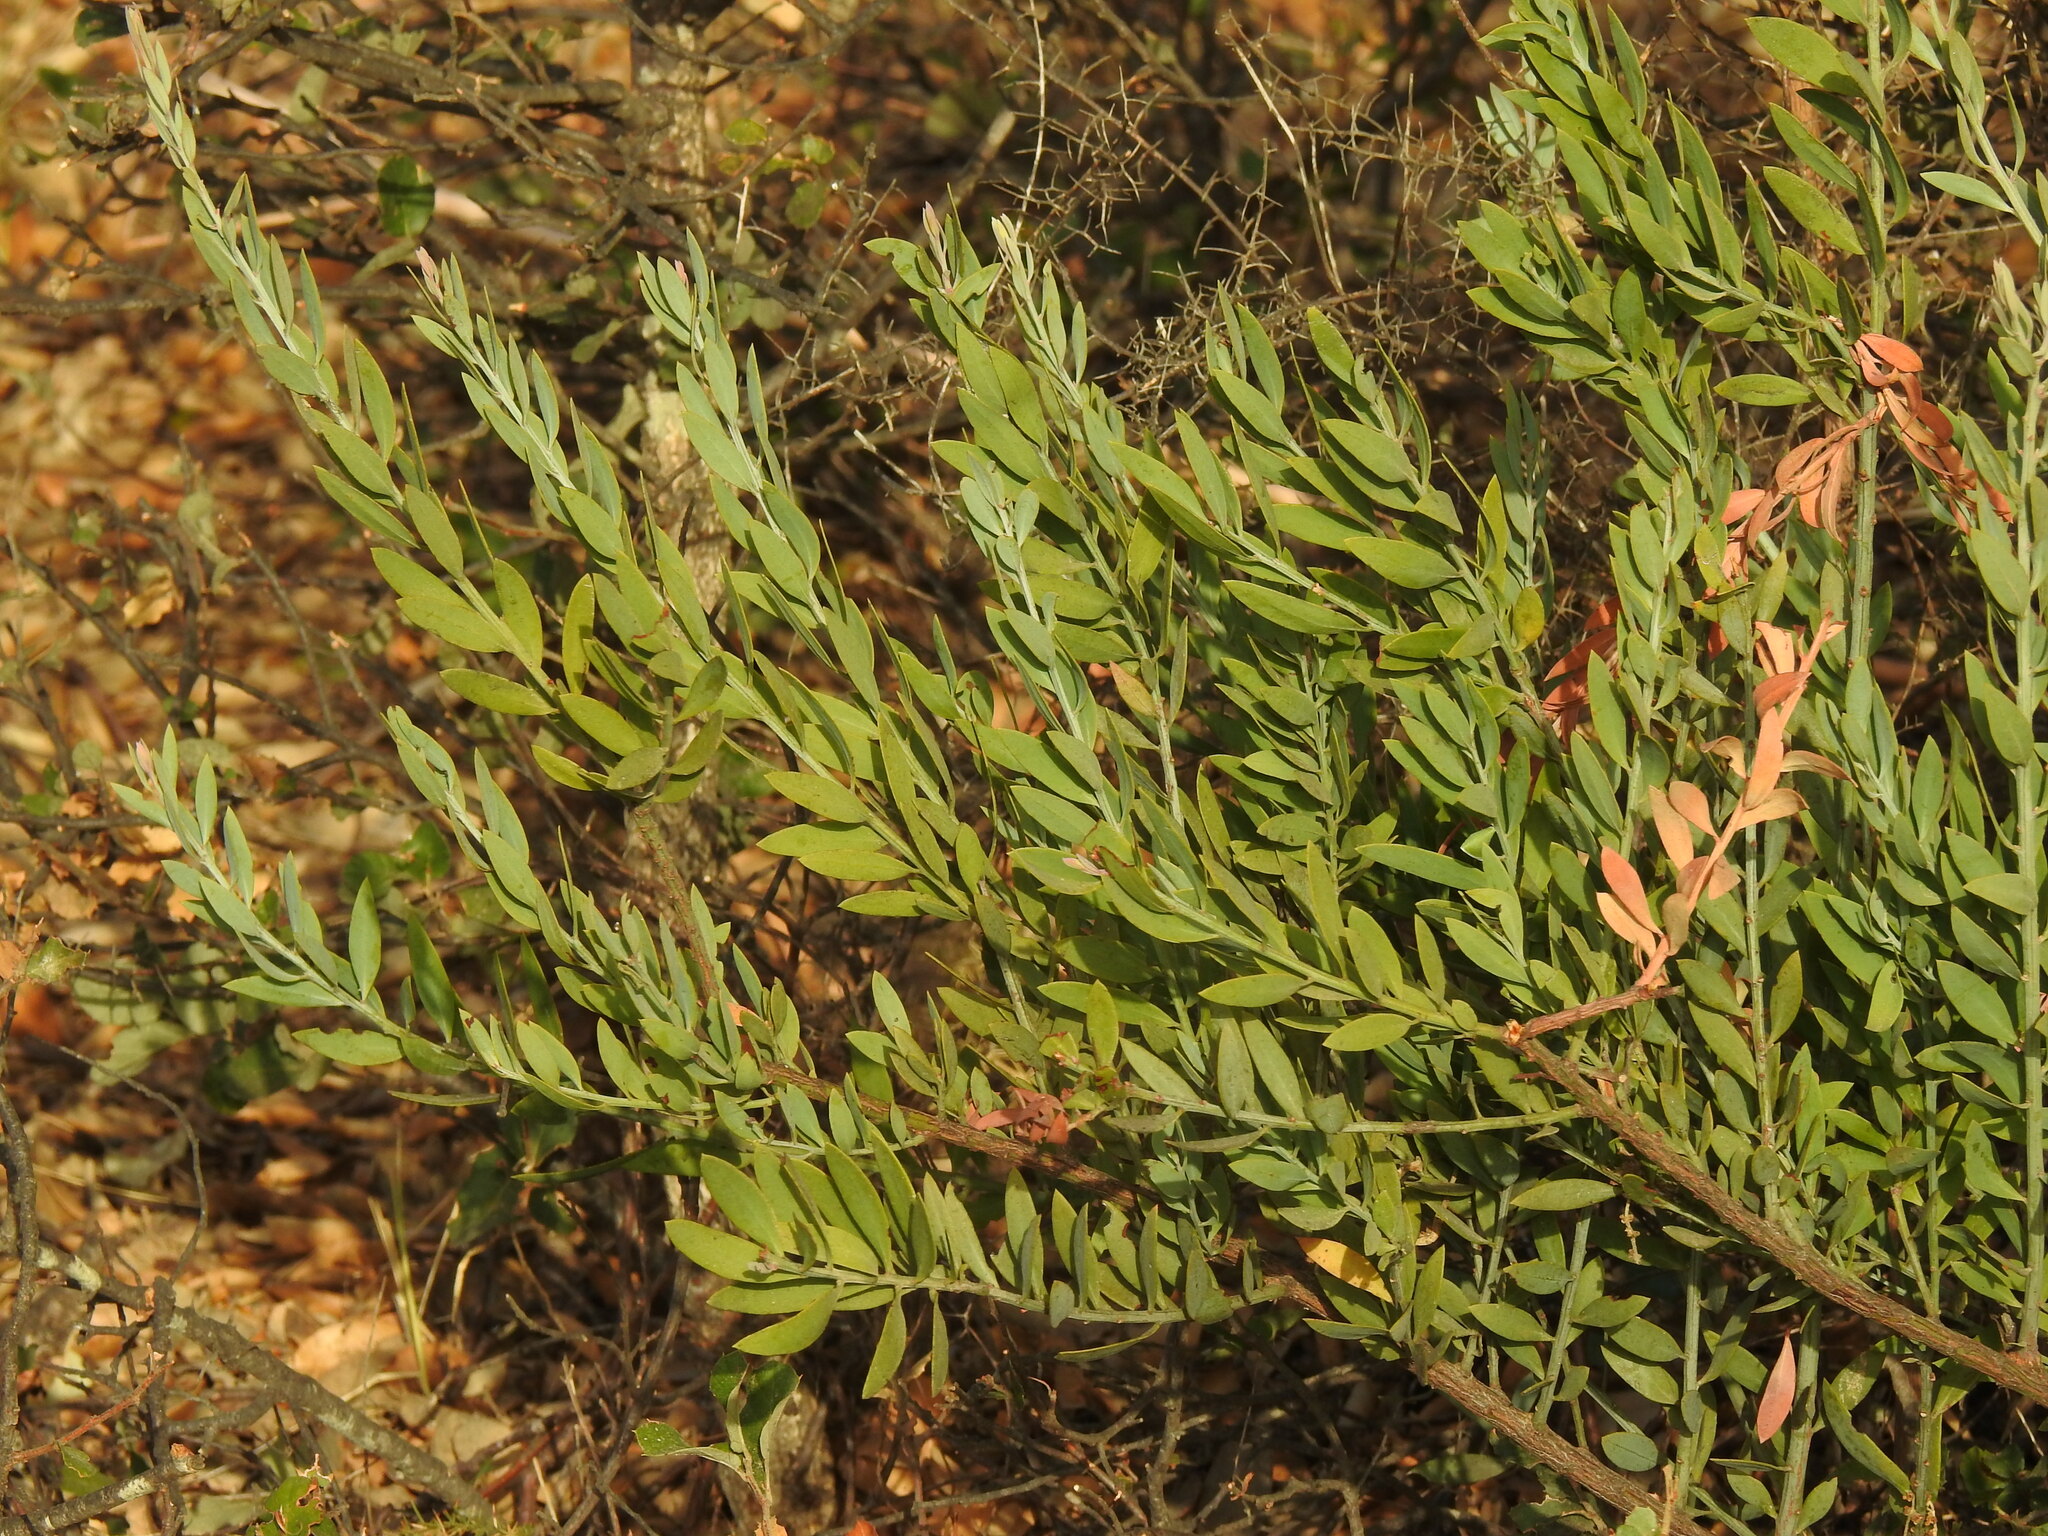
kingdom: Plantae
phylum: Tracheophyta
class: Magnoliopsida
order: Santalales
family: Santalaceae
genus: Osyris
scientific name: Osyris lanceolata
